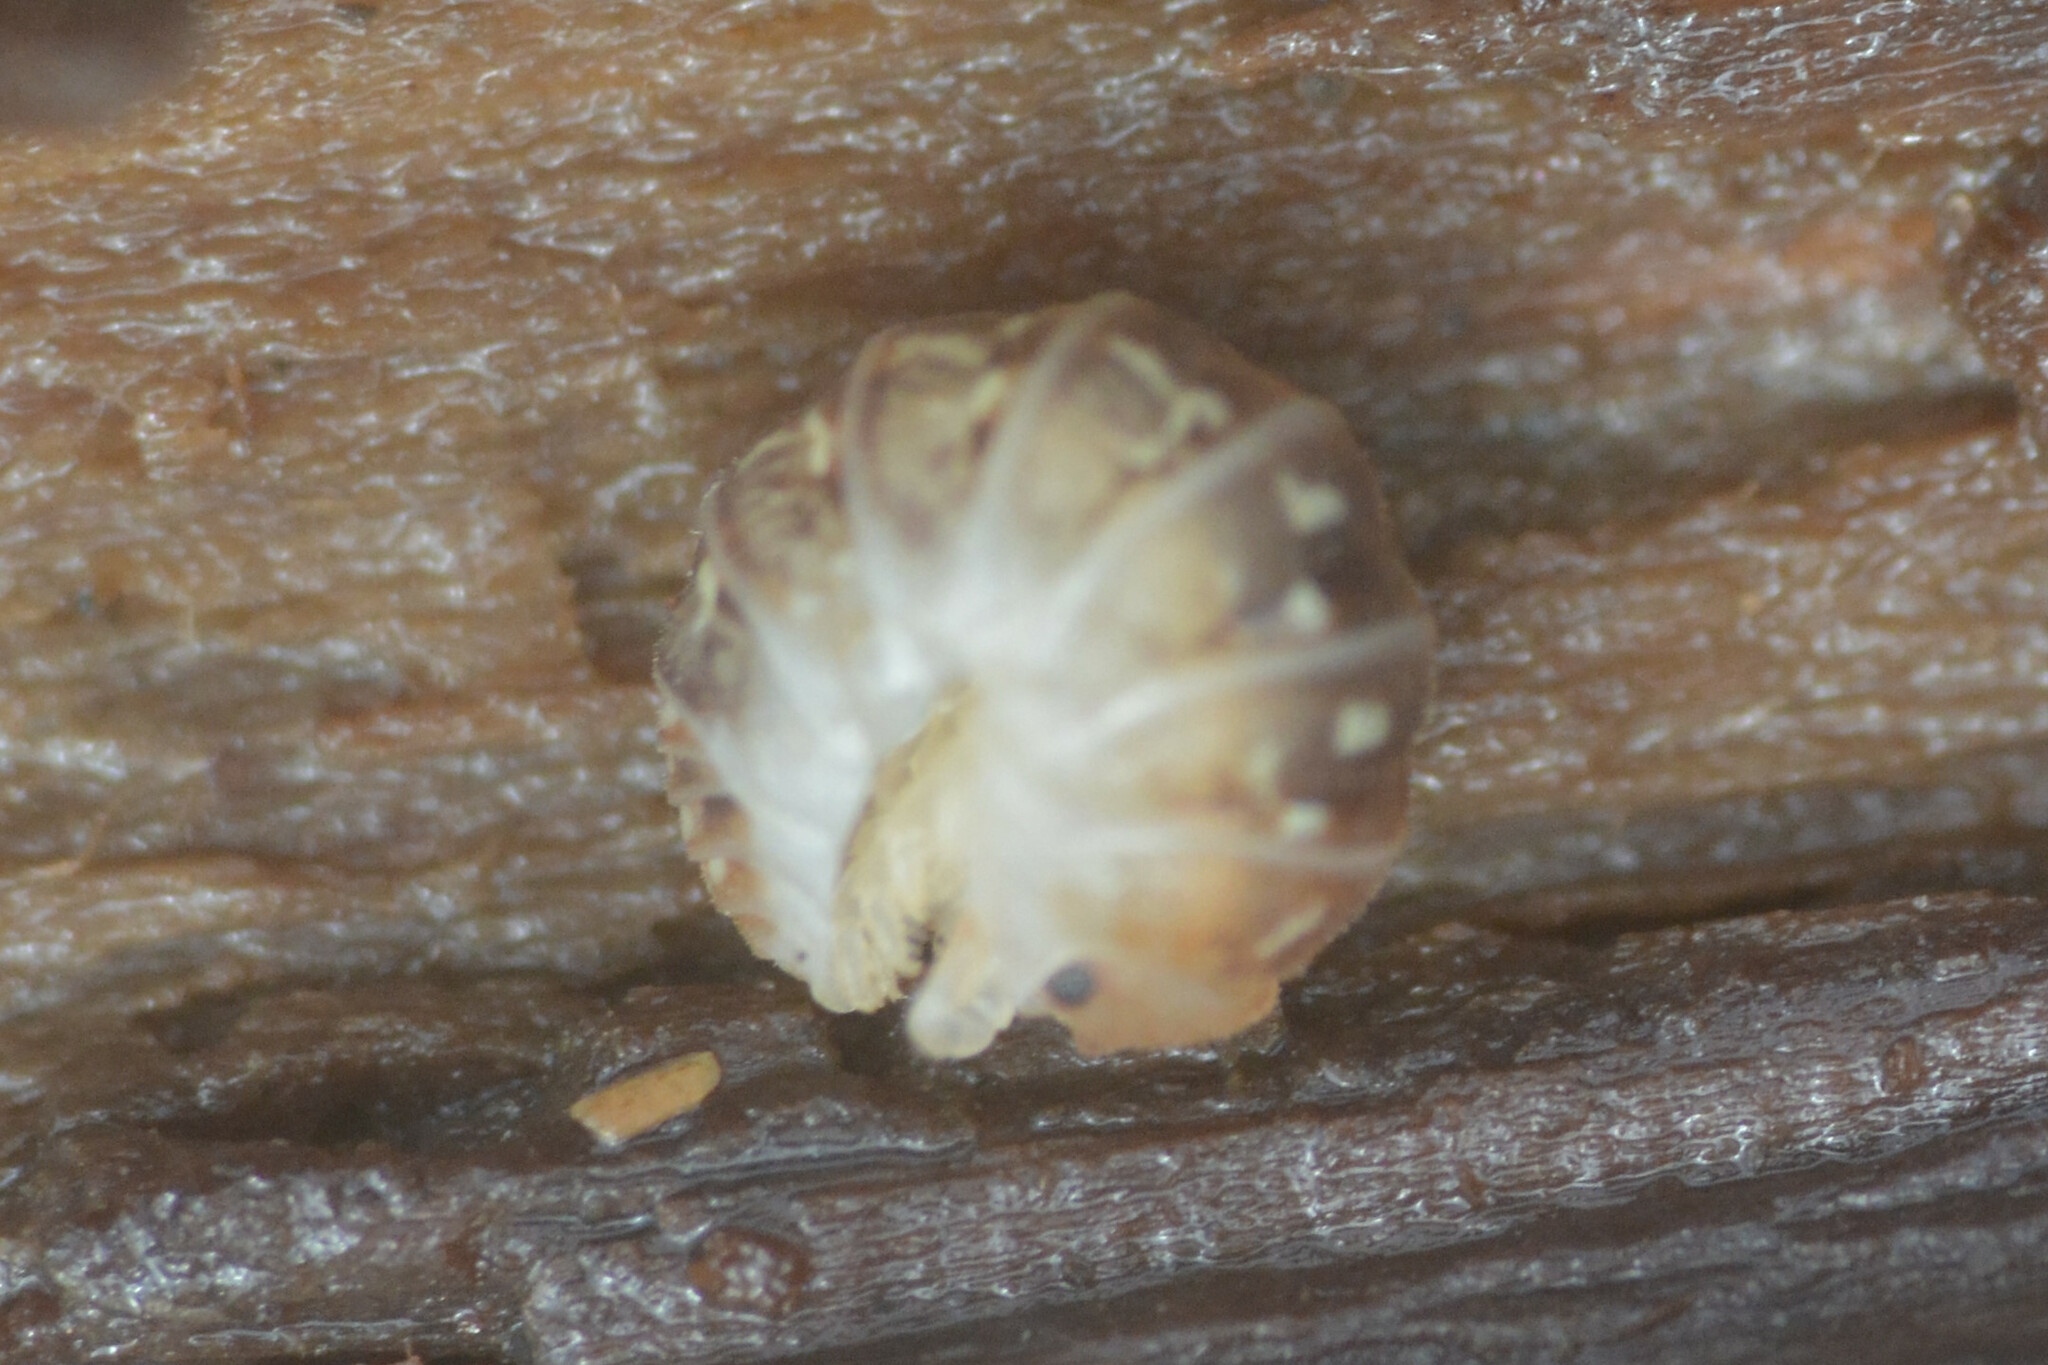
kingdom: Animalia
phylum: Arthropoda
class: Malacostraca
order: Isopoda
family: Armadillidiidae
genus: Armadillidium
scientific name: Armadillidium album
